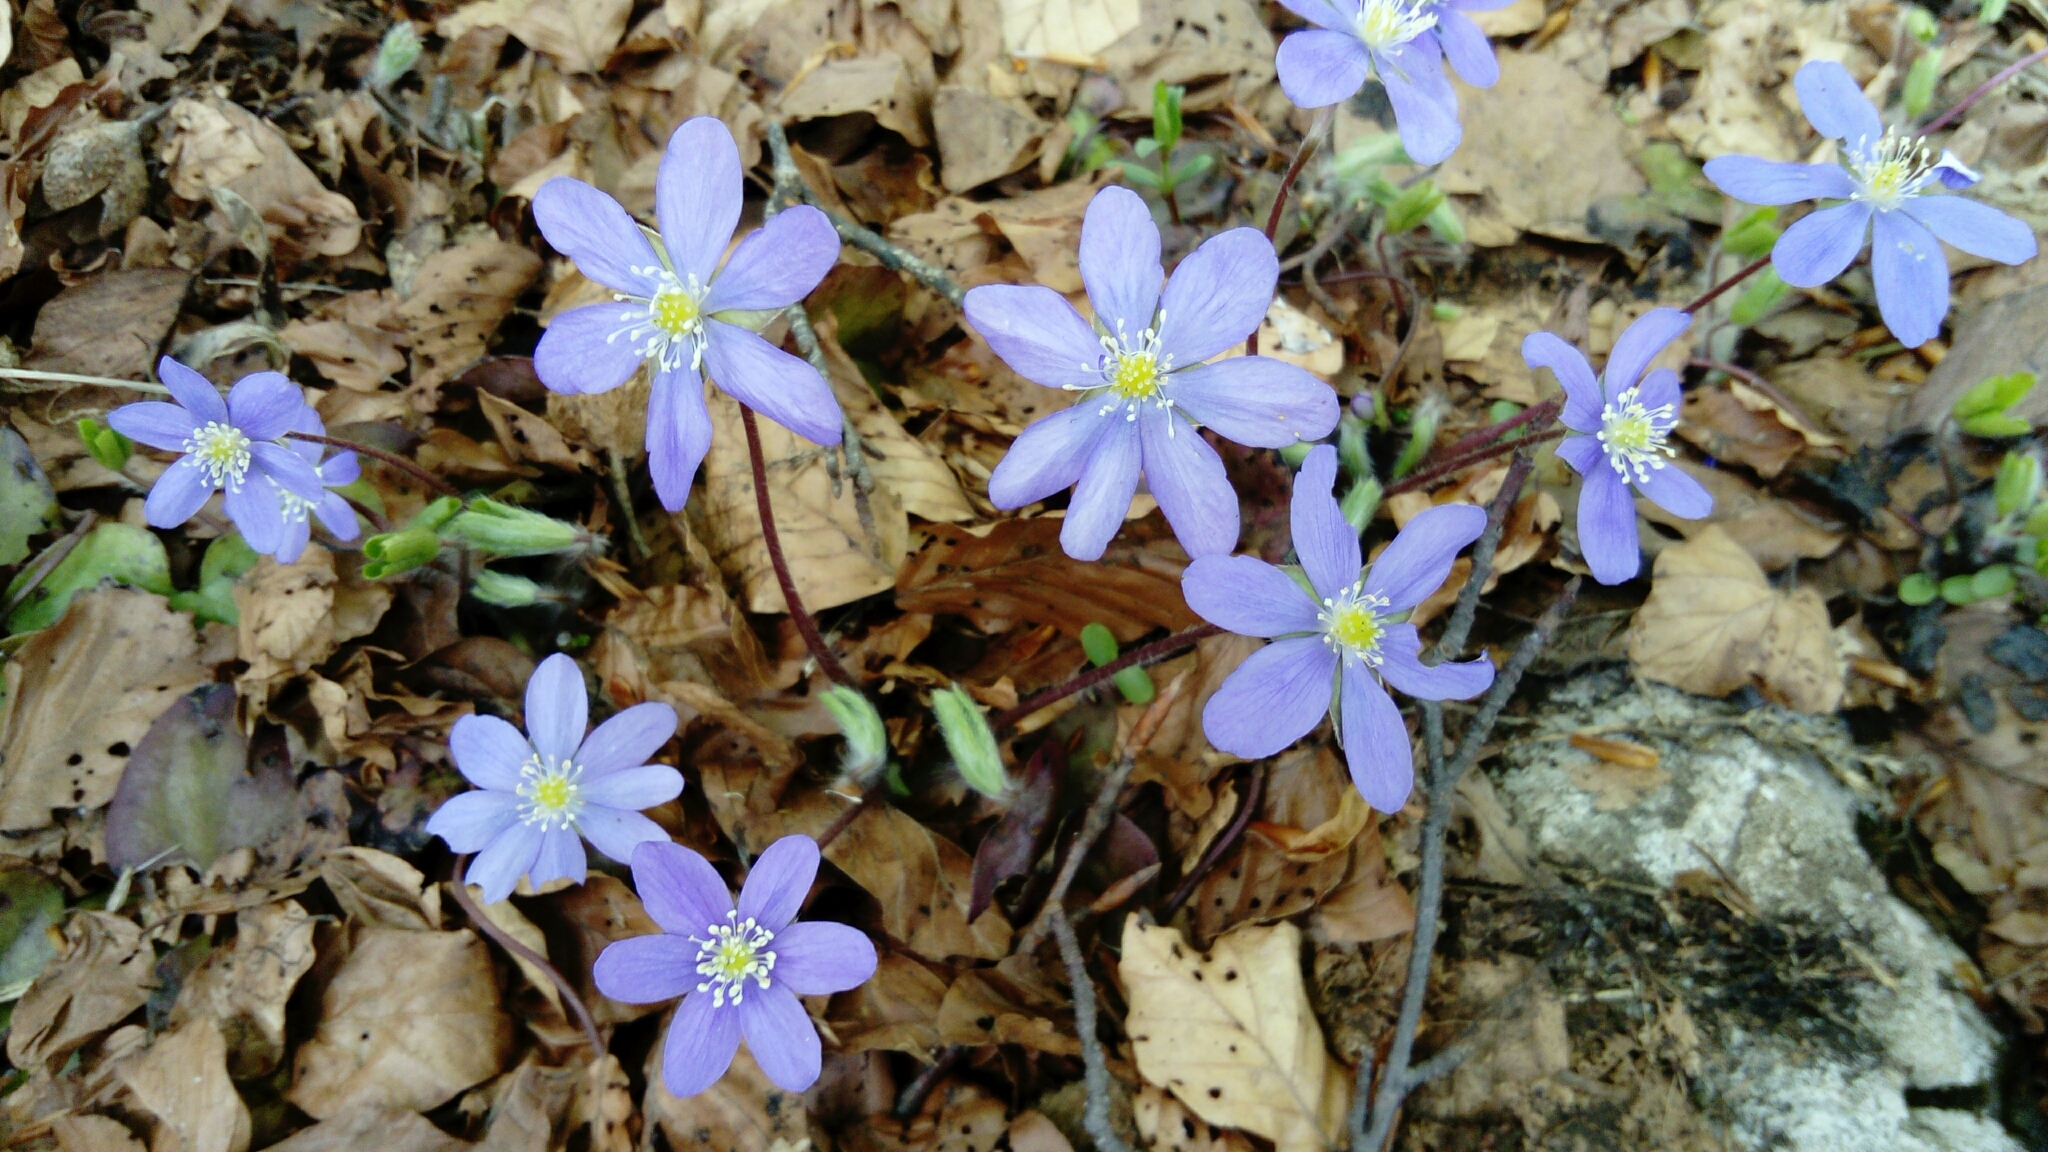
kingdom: Plantae
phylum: Tracheophyta
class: Magnoliopsida
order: Ranunculales
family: Ranunculaceae
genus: Hepatica
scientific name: Hepatica nobilis
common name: Liverleaf
